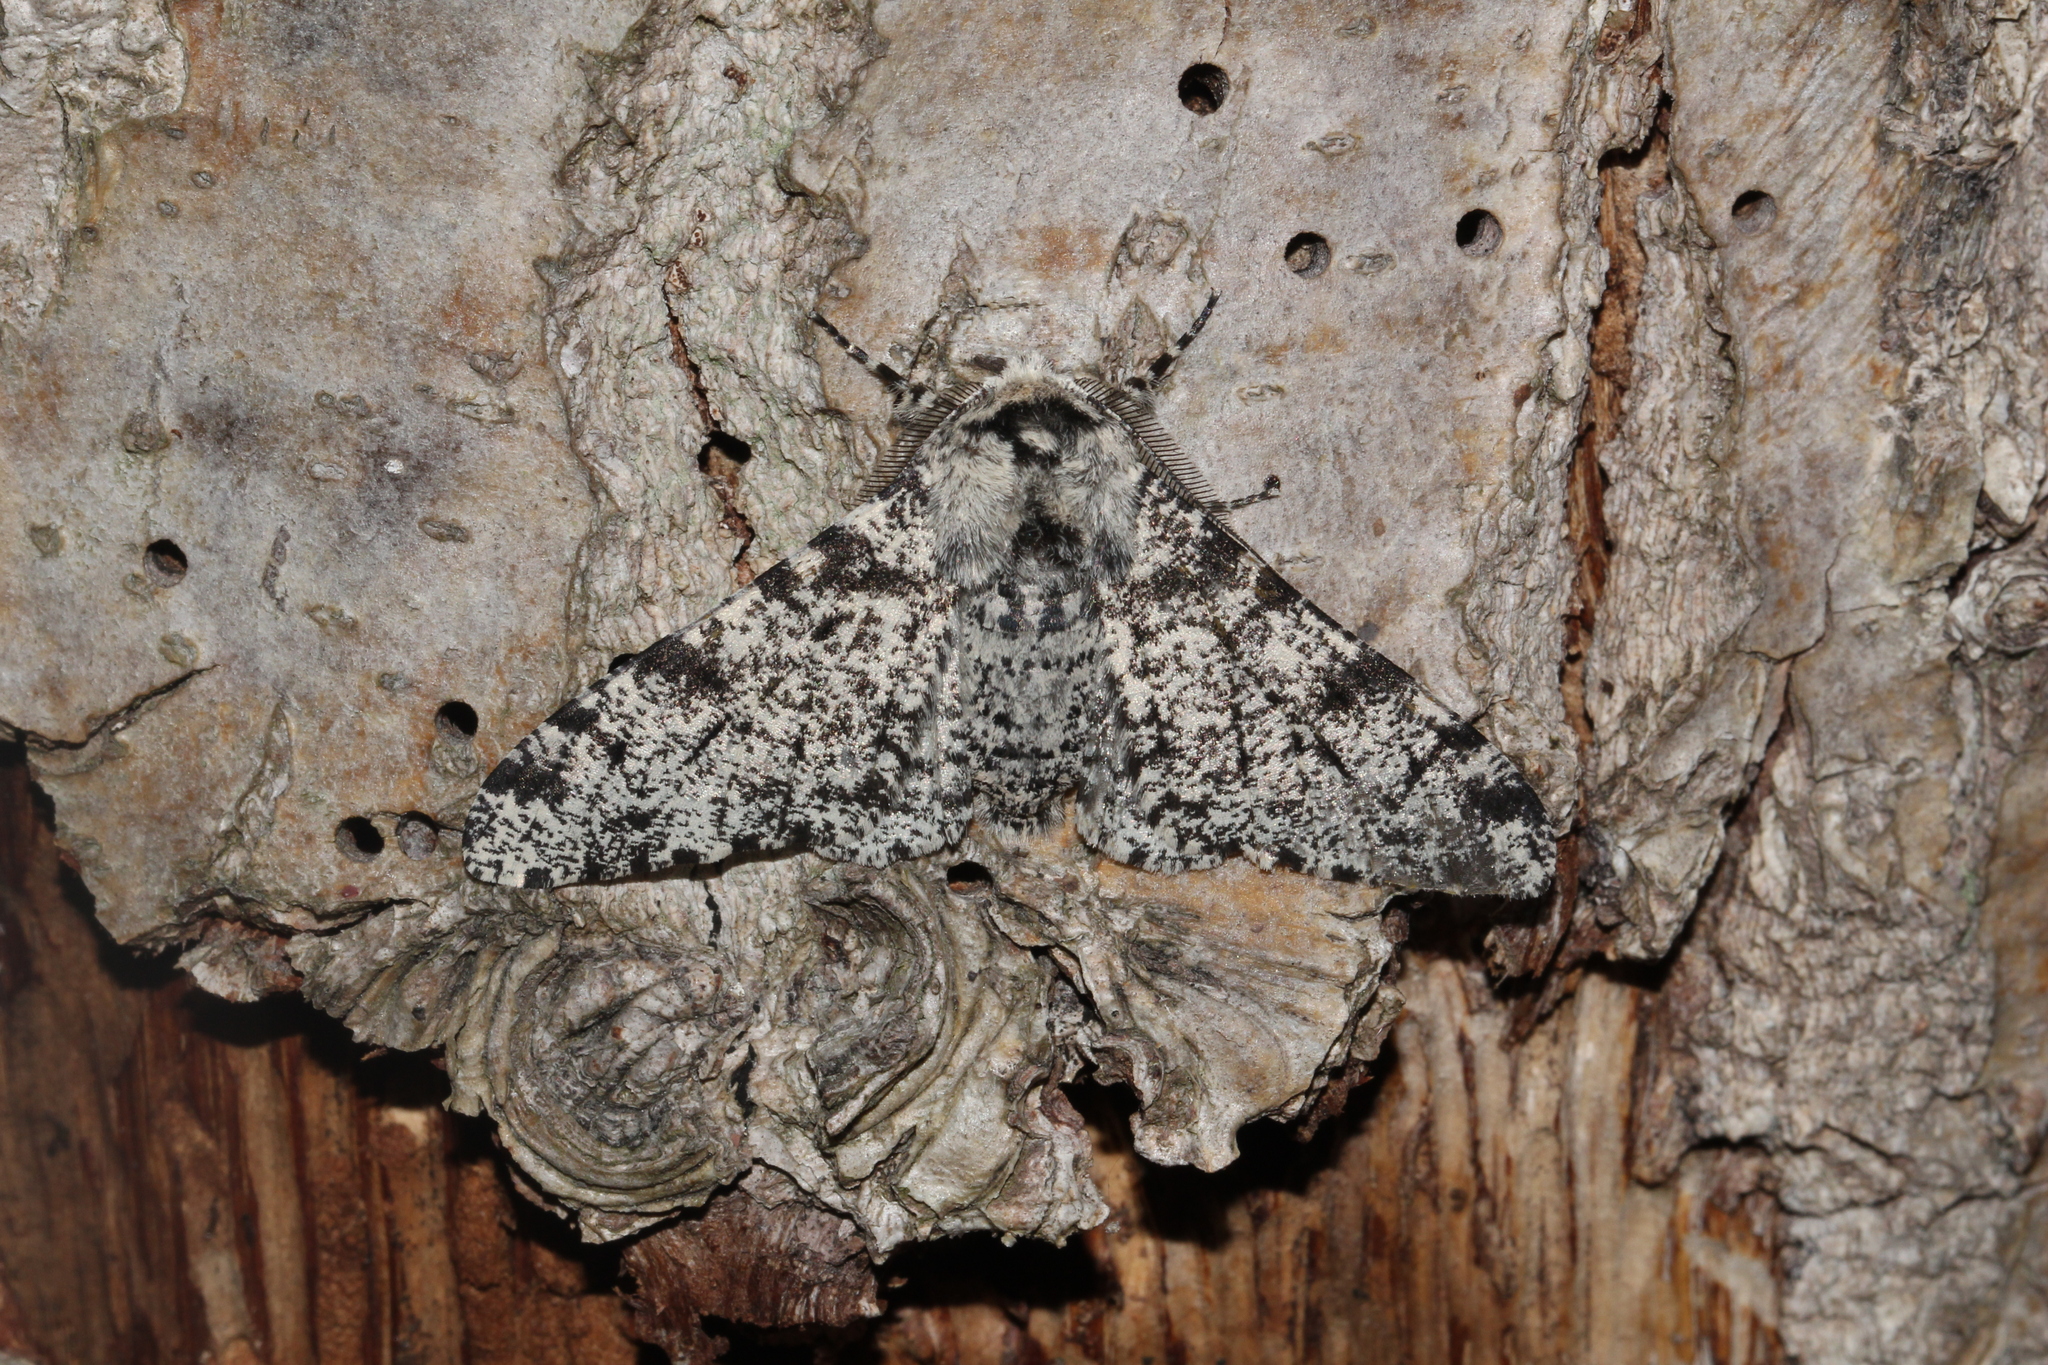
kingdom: Animalia
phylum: Arthropoda
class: Insecta
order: Lepidoptera
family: Geometridae
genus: Biston
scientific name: Biston betularia
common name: Peppered moth
